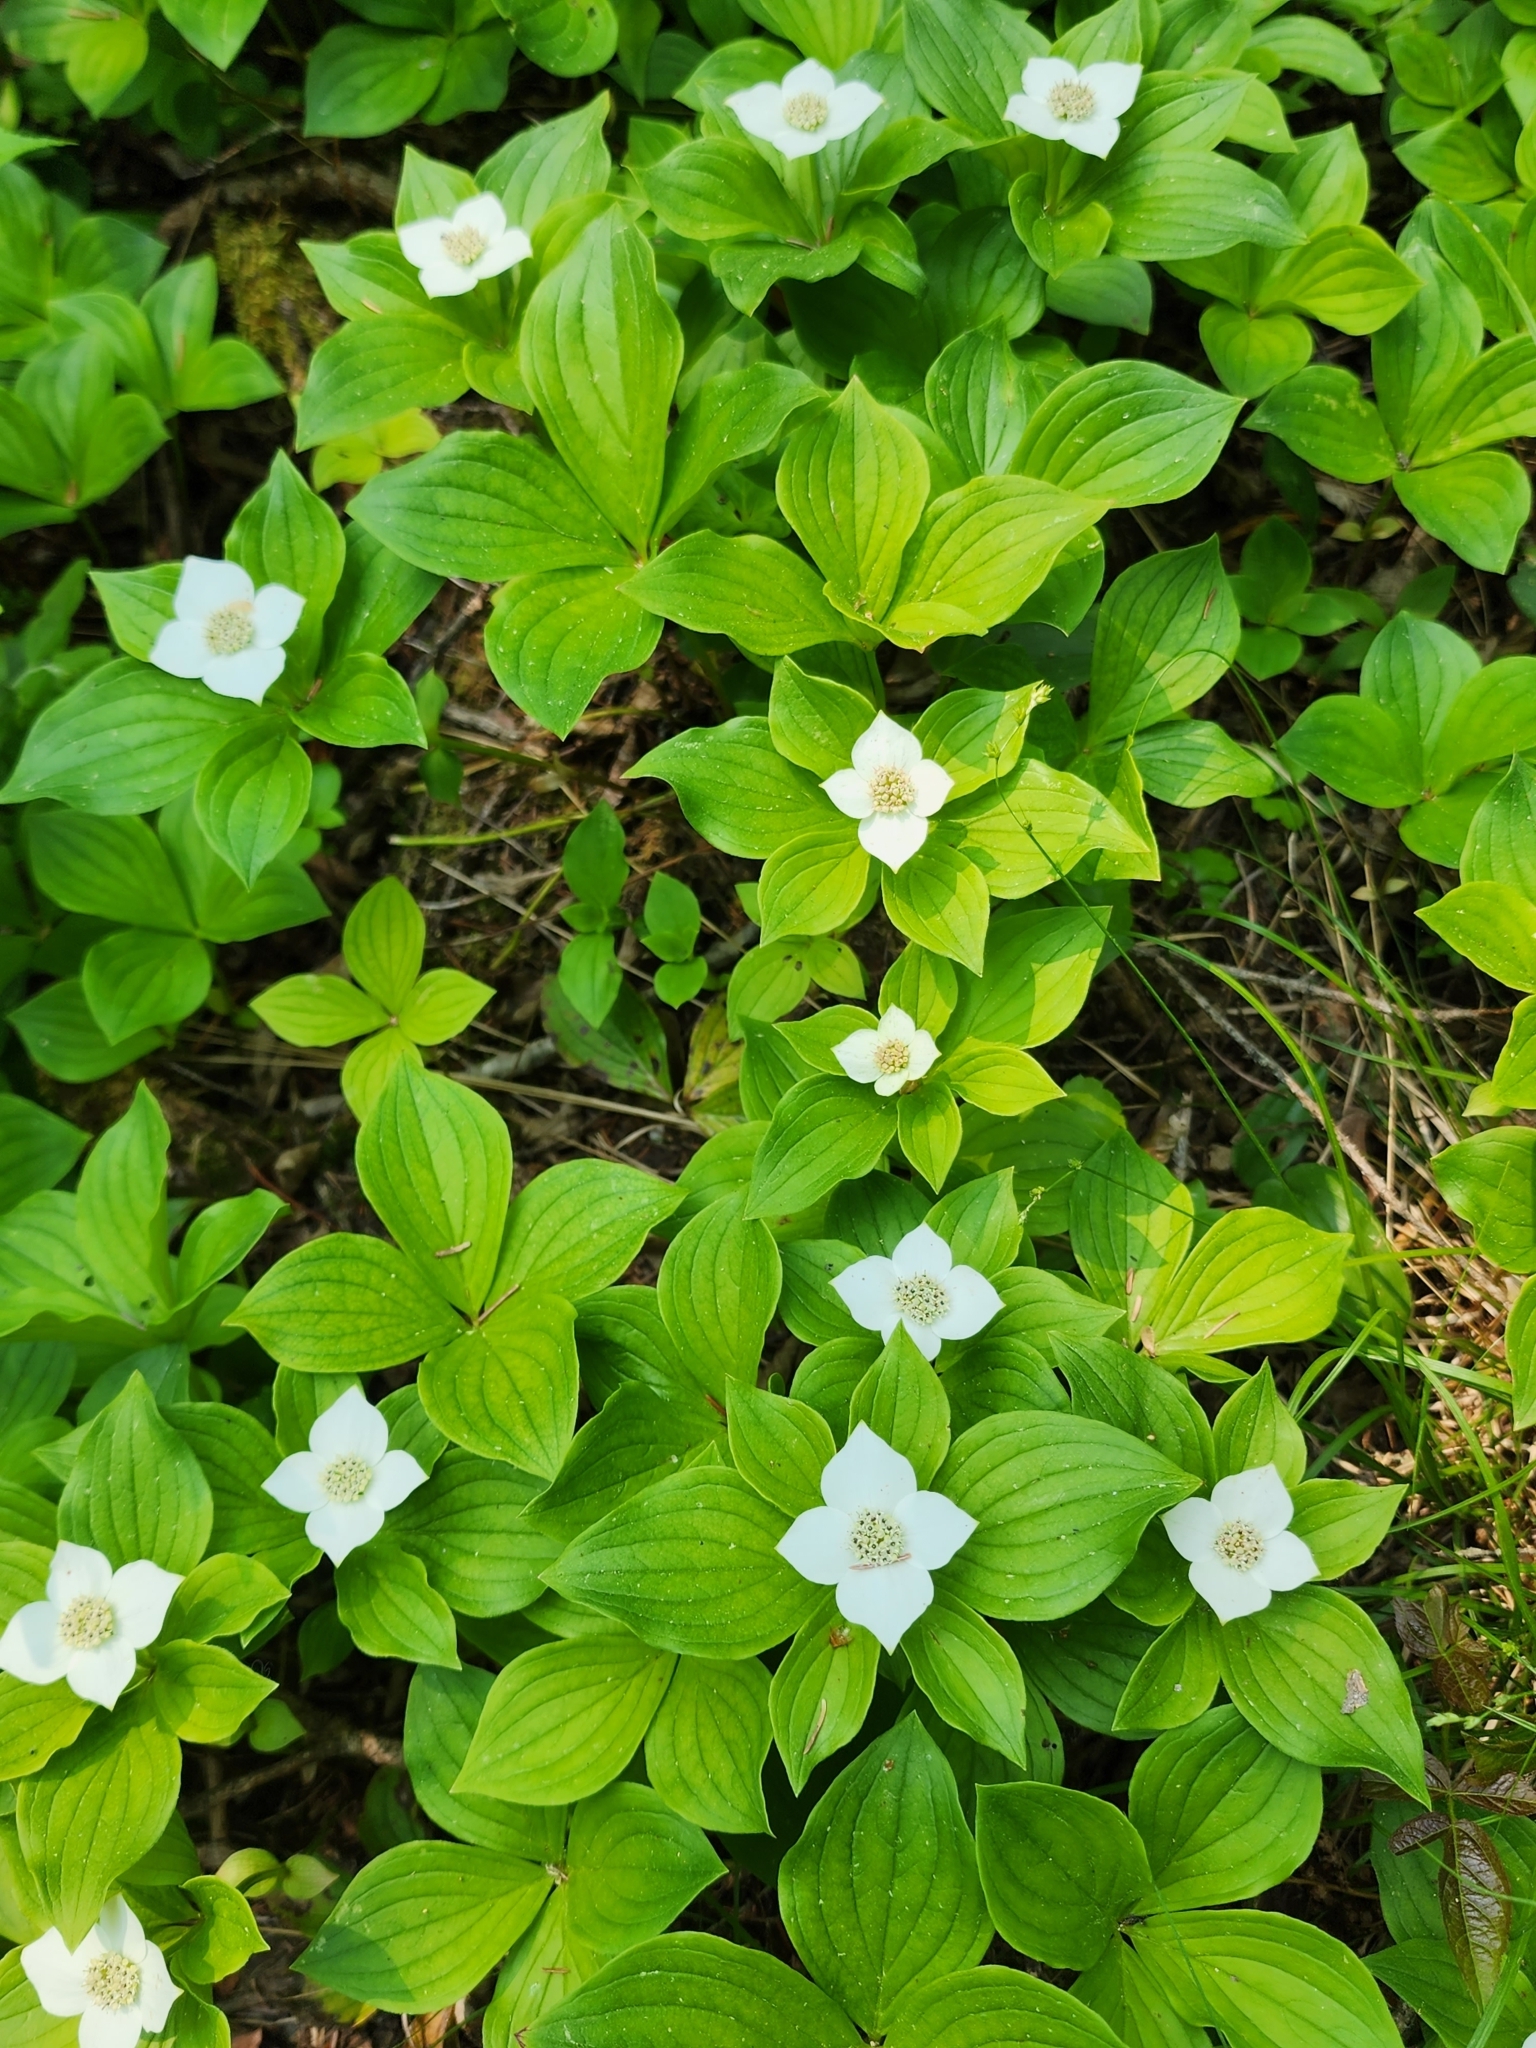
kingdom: Plantae
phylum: Tracheophyta
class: Magnoliopsida
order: Cornales
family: Cornaceae
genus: Cornus
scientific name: Cornus canadensis
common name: Creeping dogwood
